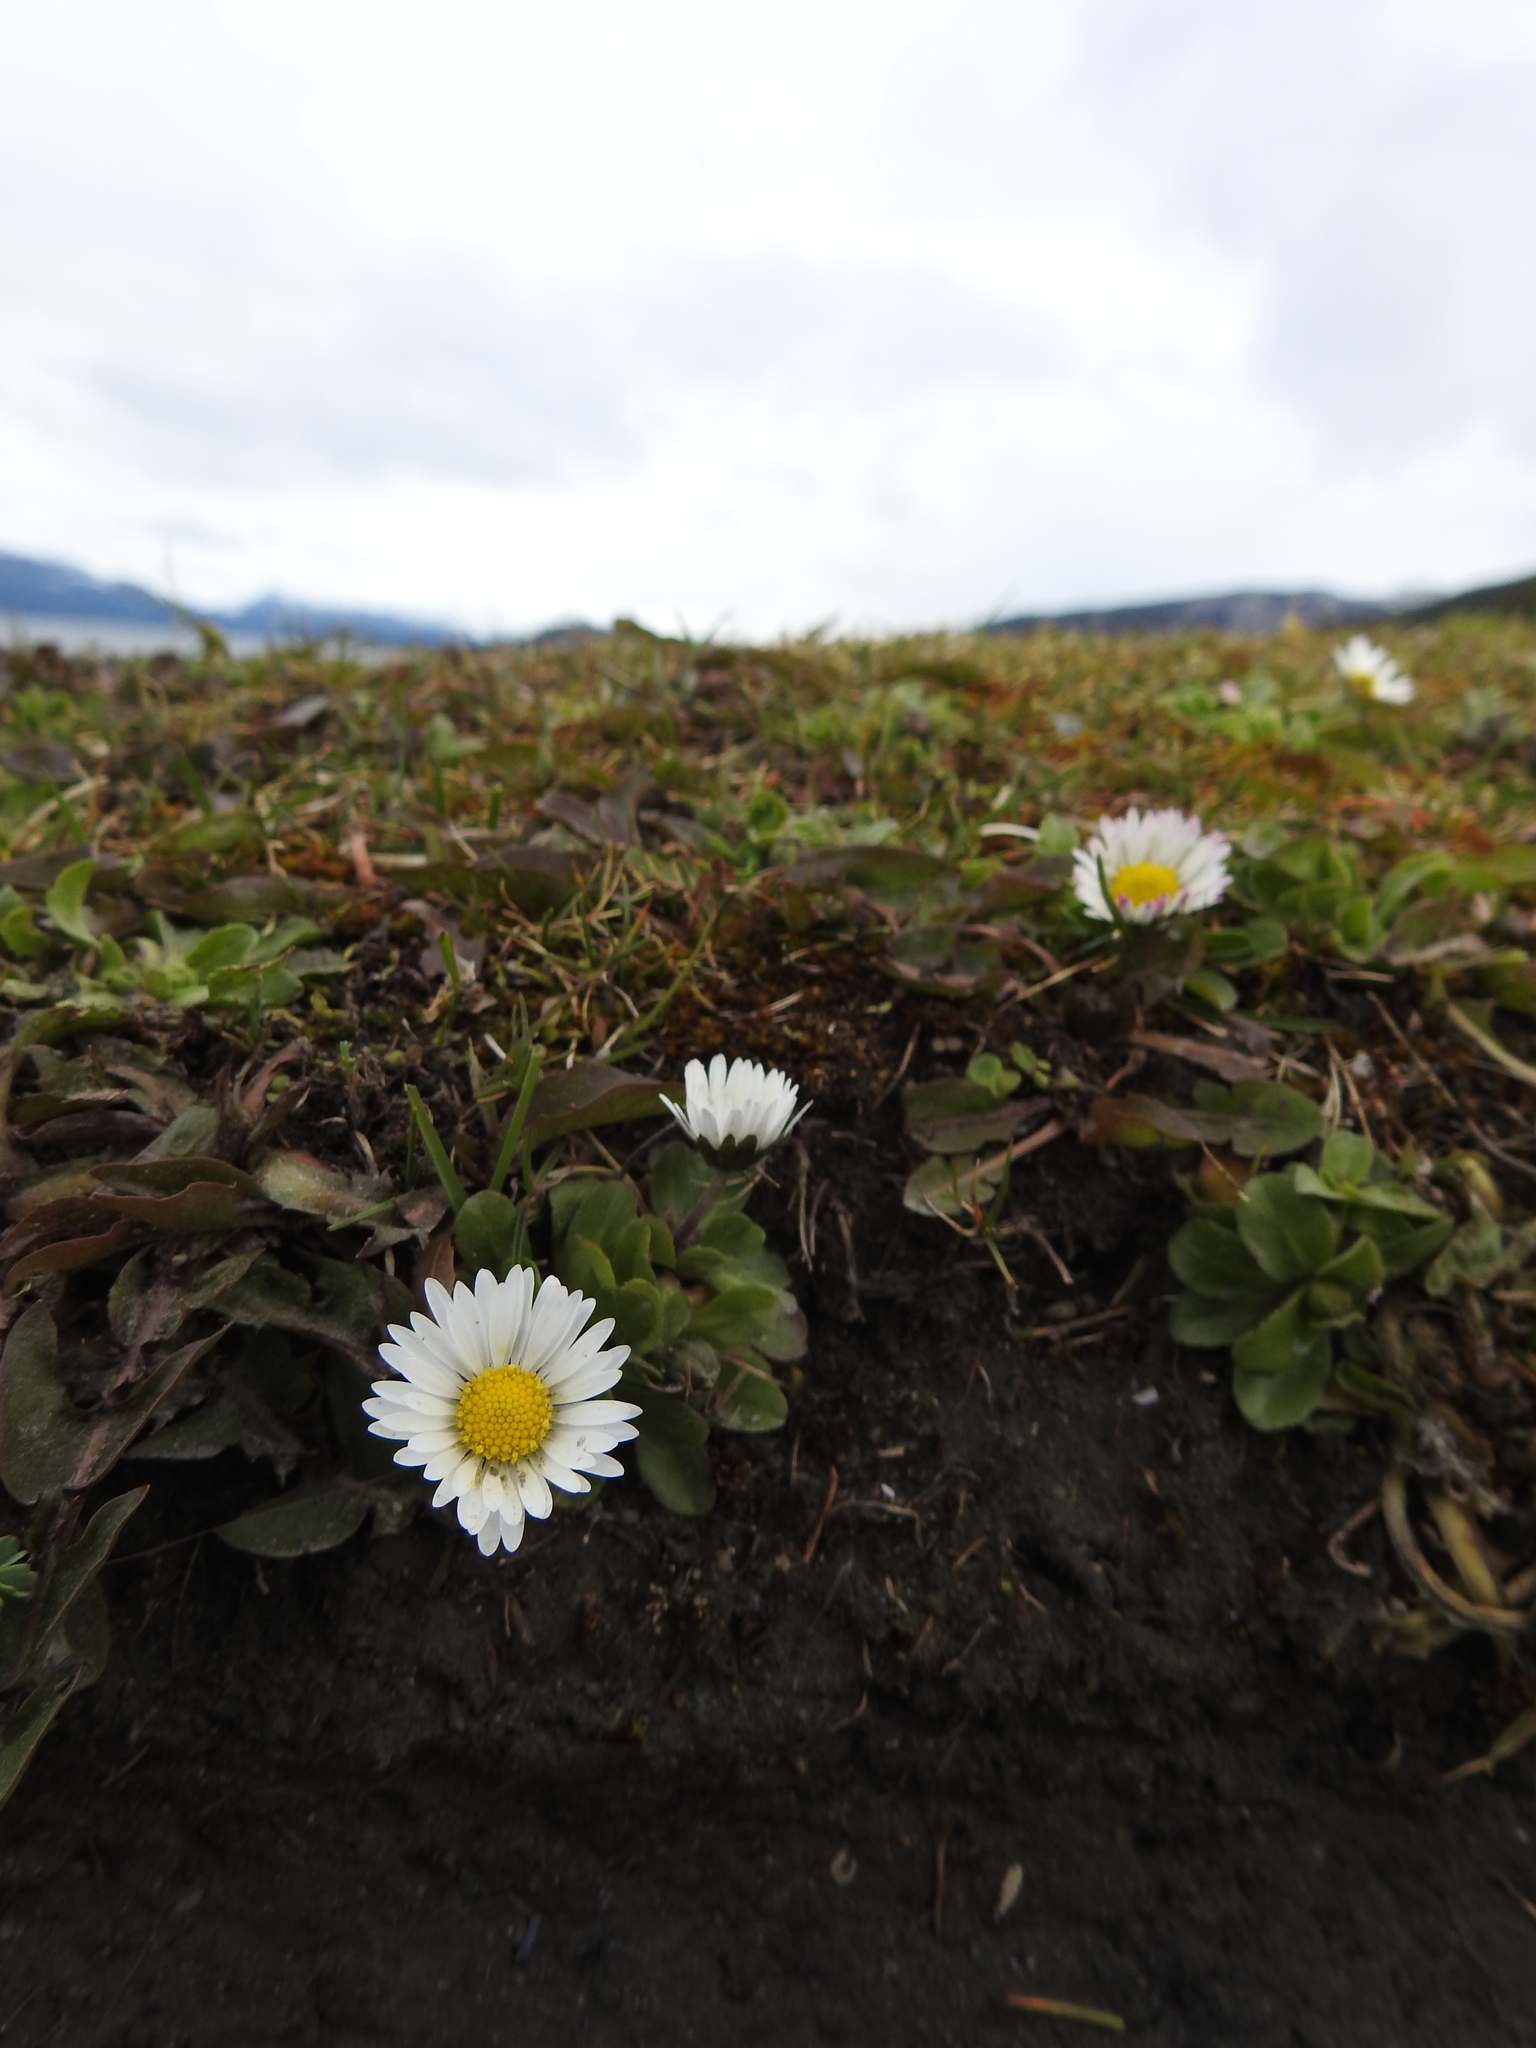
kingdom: Plantae
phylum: Tracheophyta
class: Magnoliopsida
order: Asterales
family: Asteraceae
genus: Bellis
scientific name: Bellis perennis
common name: Lawndaisy
